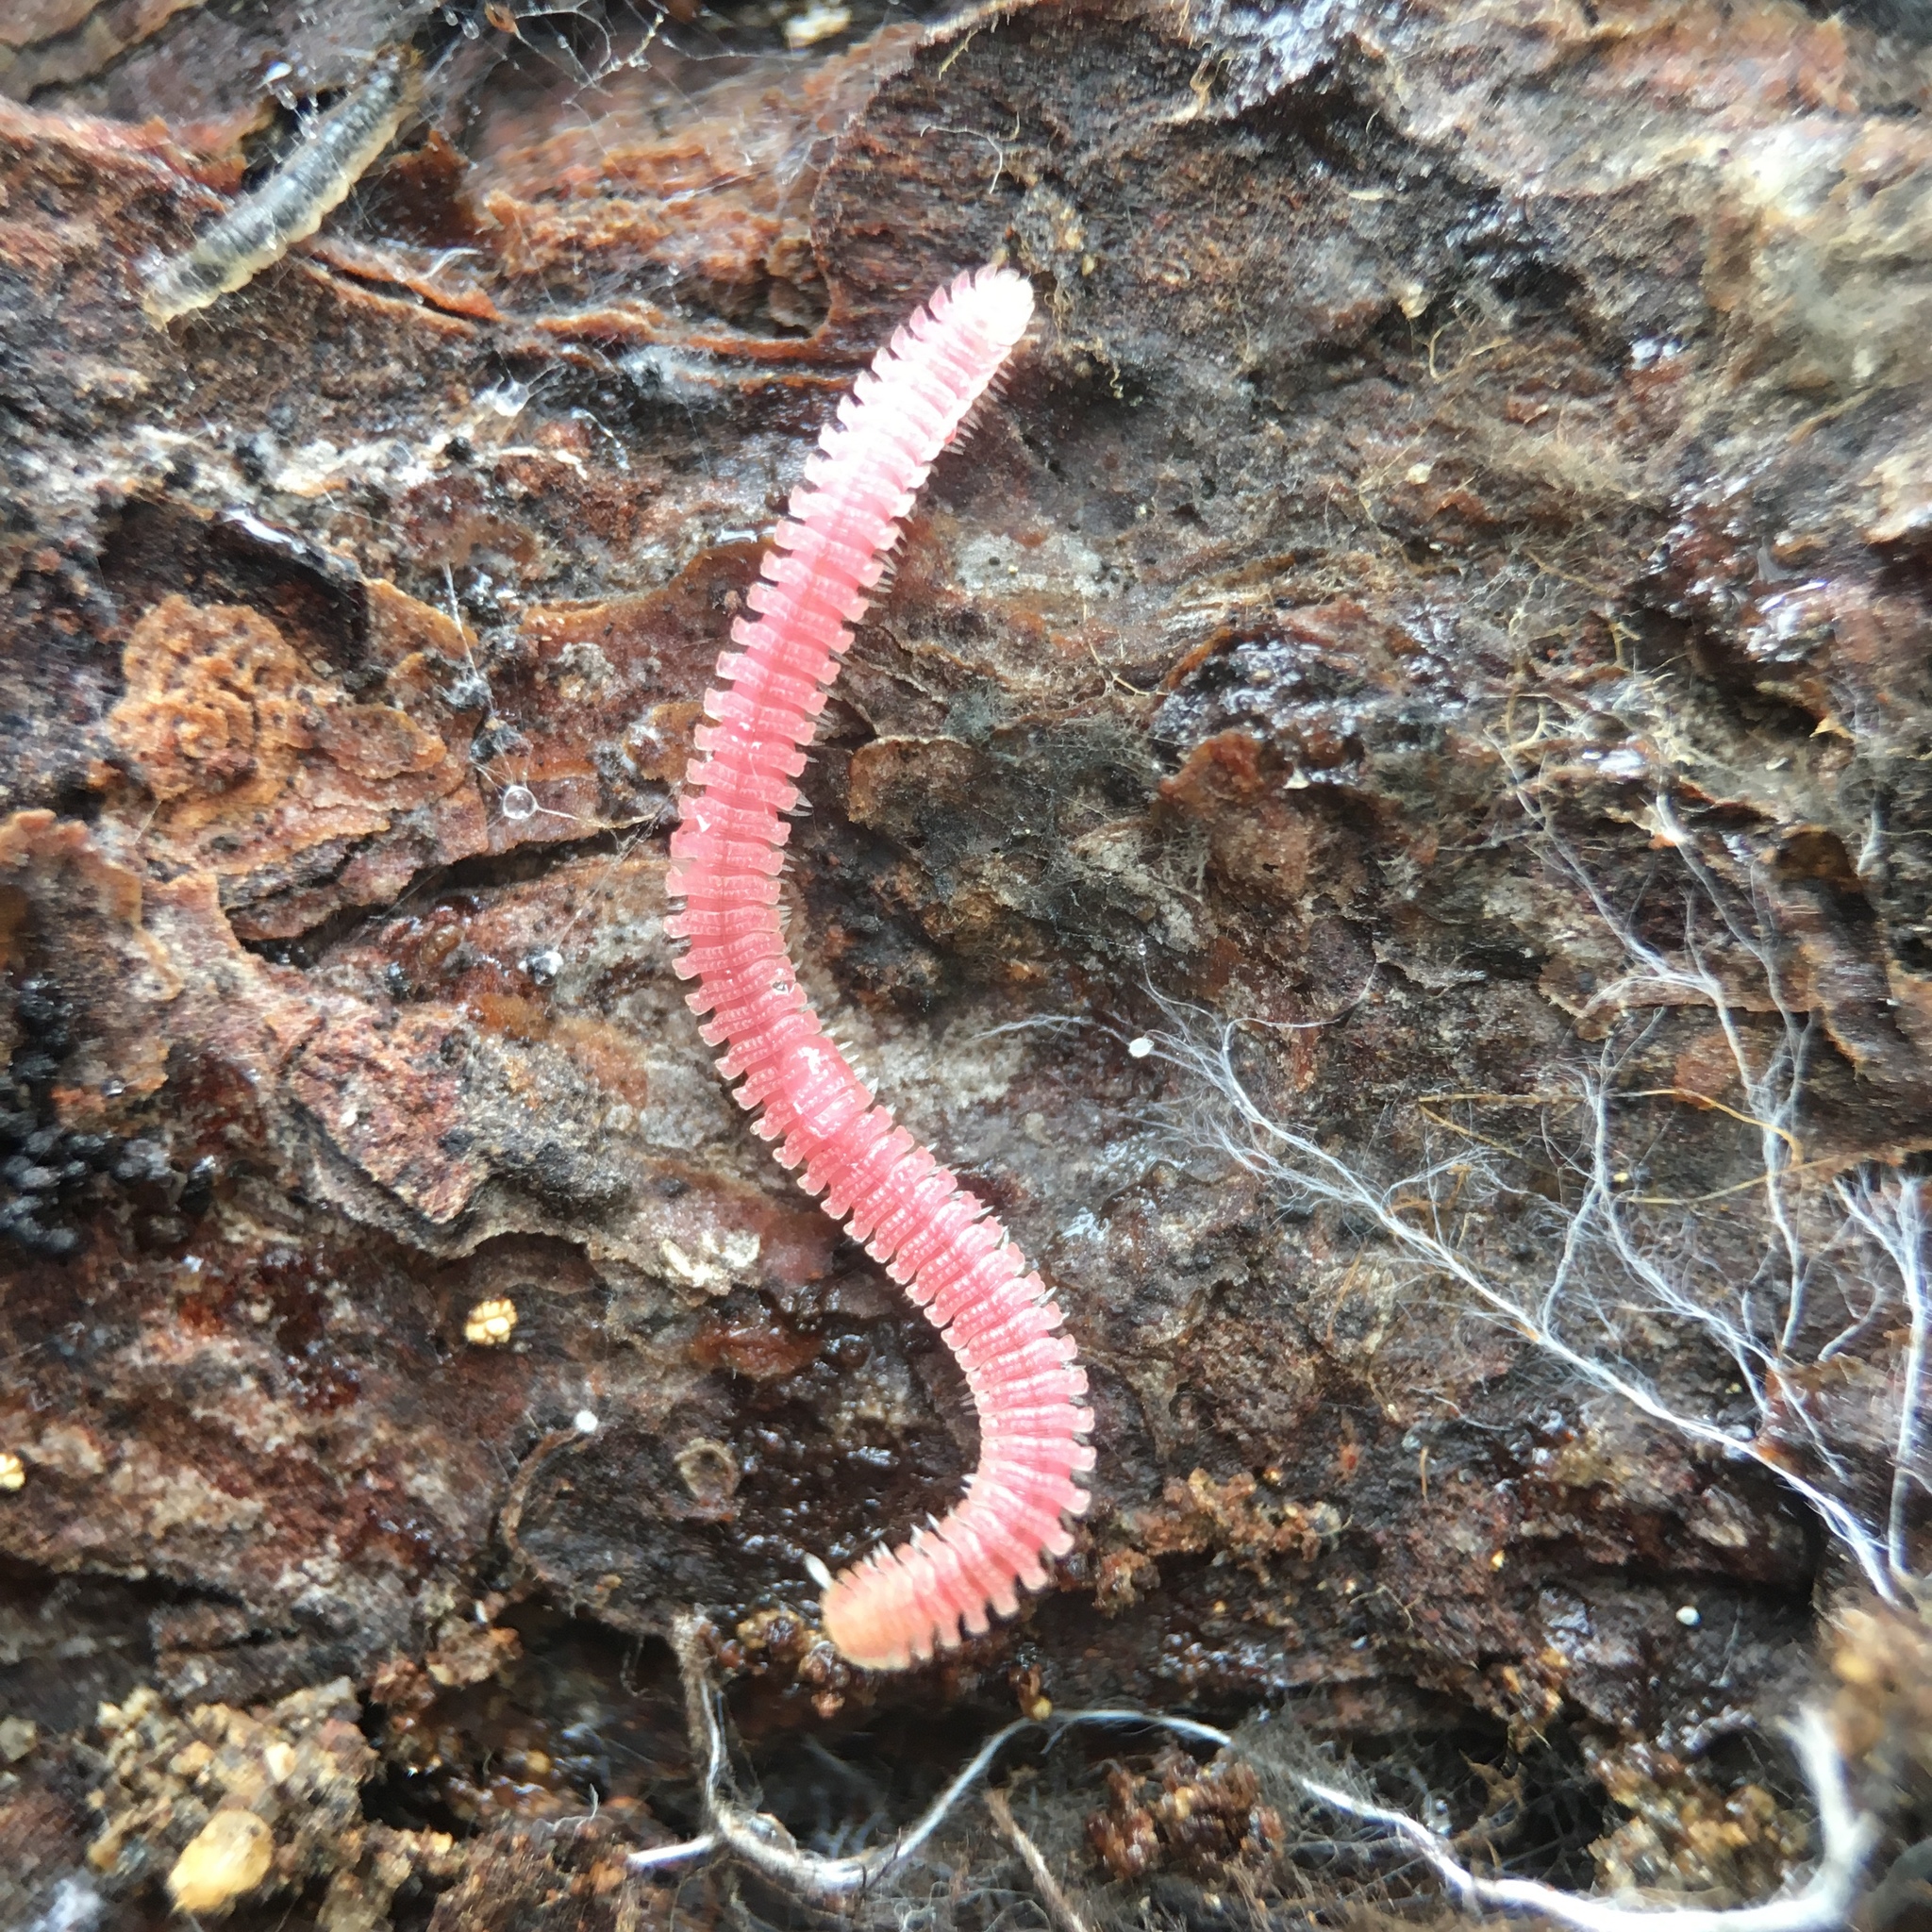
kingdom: Animalia
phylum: Arthropoda
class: Diplopoda
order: Platydesmida
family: Andrognathidae
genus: Gosodesmus
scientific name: Gosodesmus claremontus
